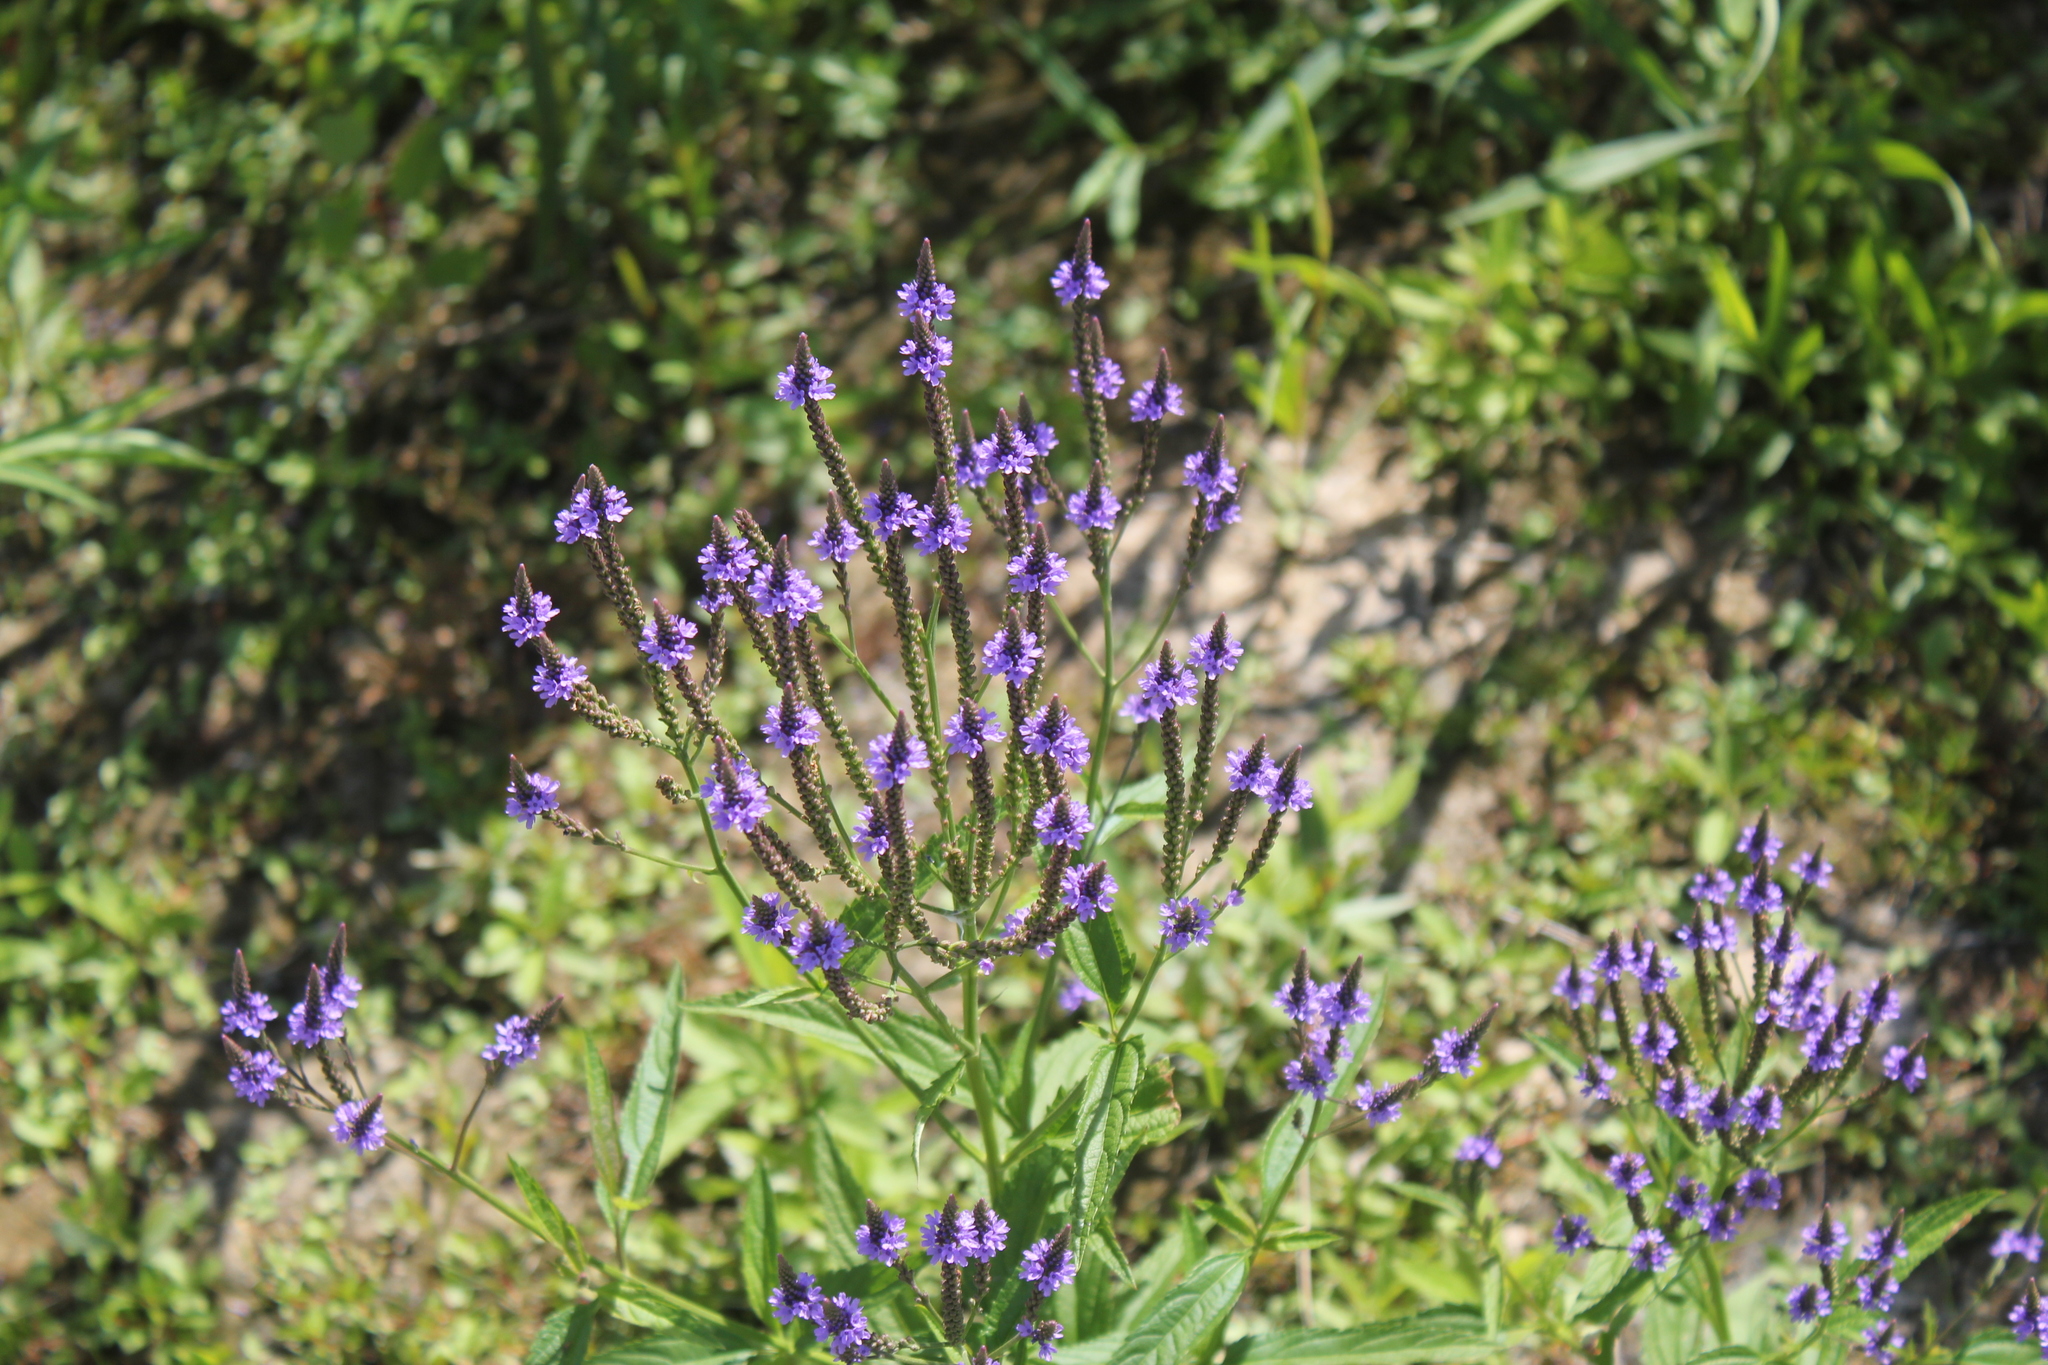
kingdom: Plantae
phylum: Tracheophyta
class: Magnoliopsida
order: Lamiales
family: Verbenaceae
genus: Verbena
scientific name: Verbena hastata
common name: American blue vervain
